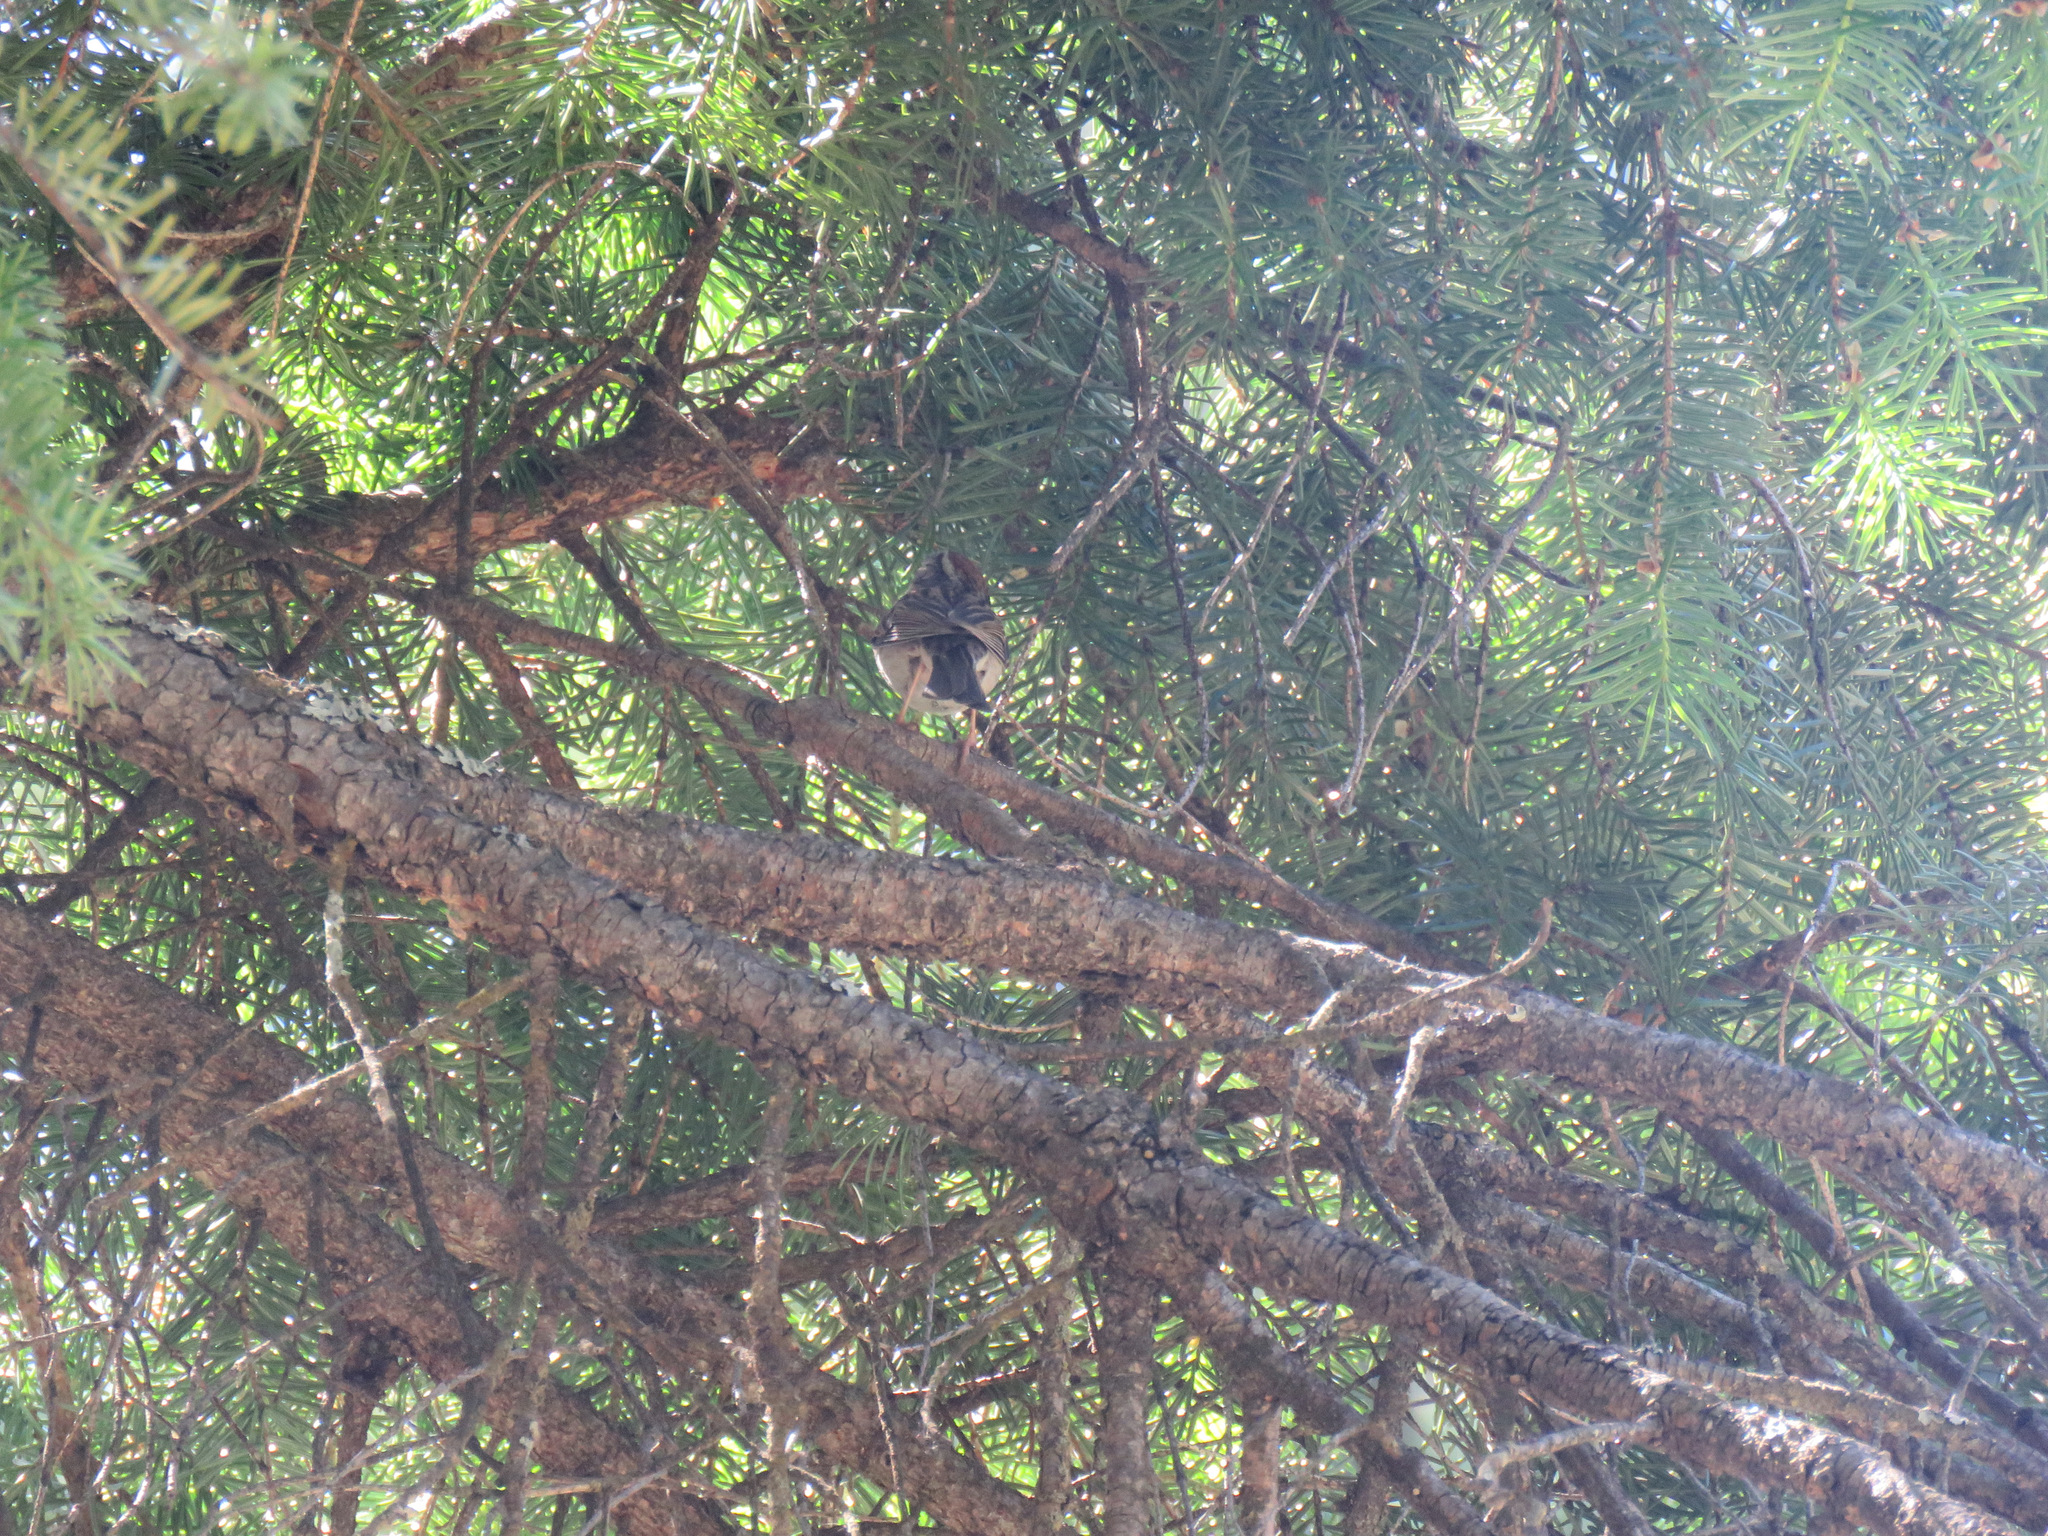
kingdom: Animalia
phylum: Chordata
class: Aves
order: Passeriformes
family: Passerellidae
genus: Spizella
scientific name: Spizella passerina
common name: Chipping sparrow
